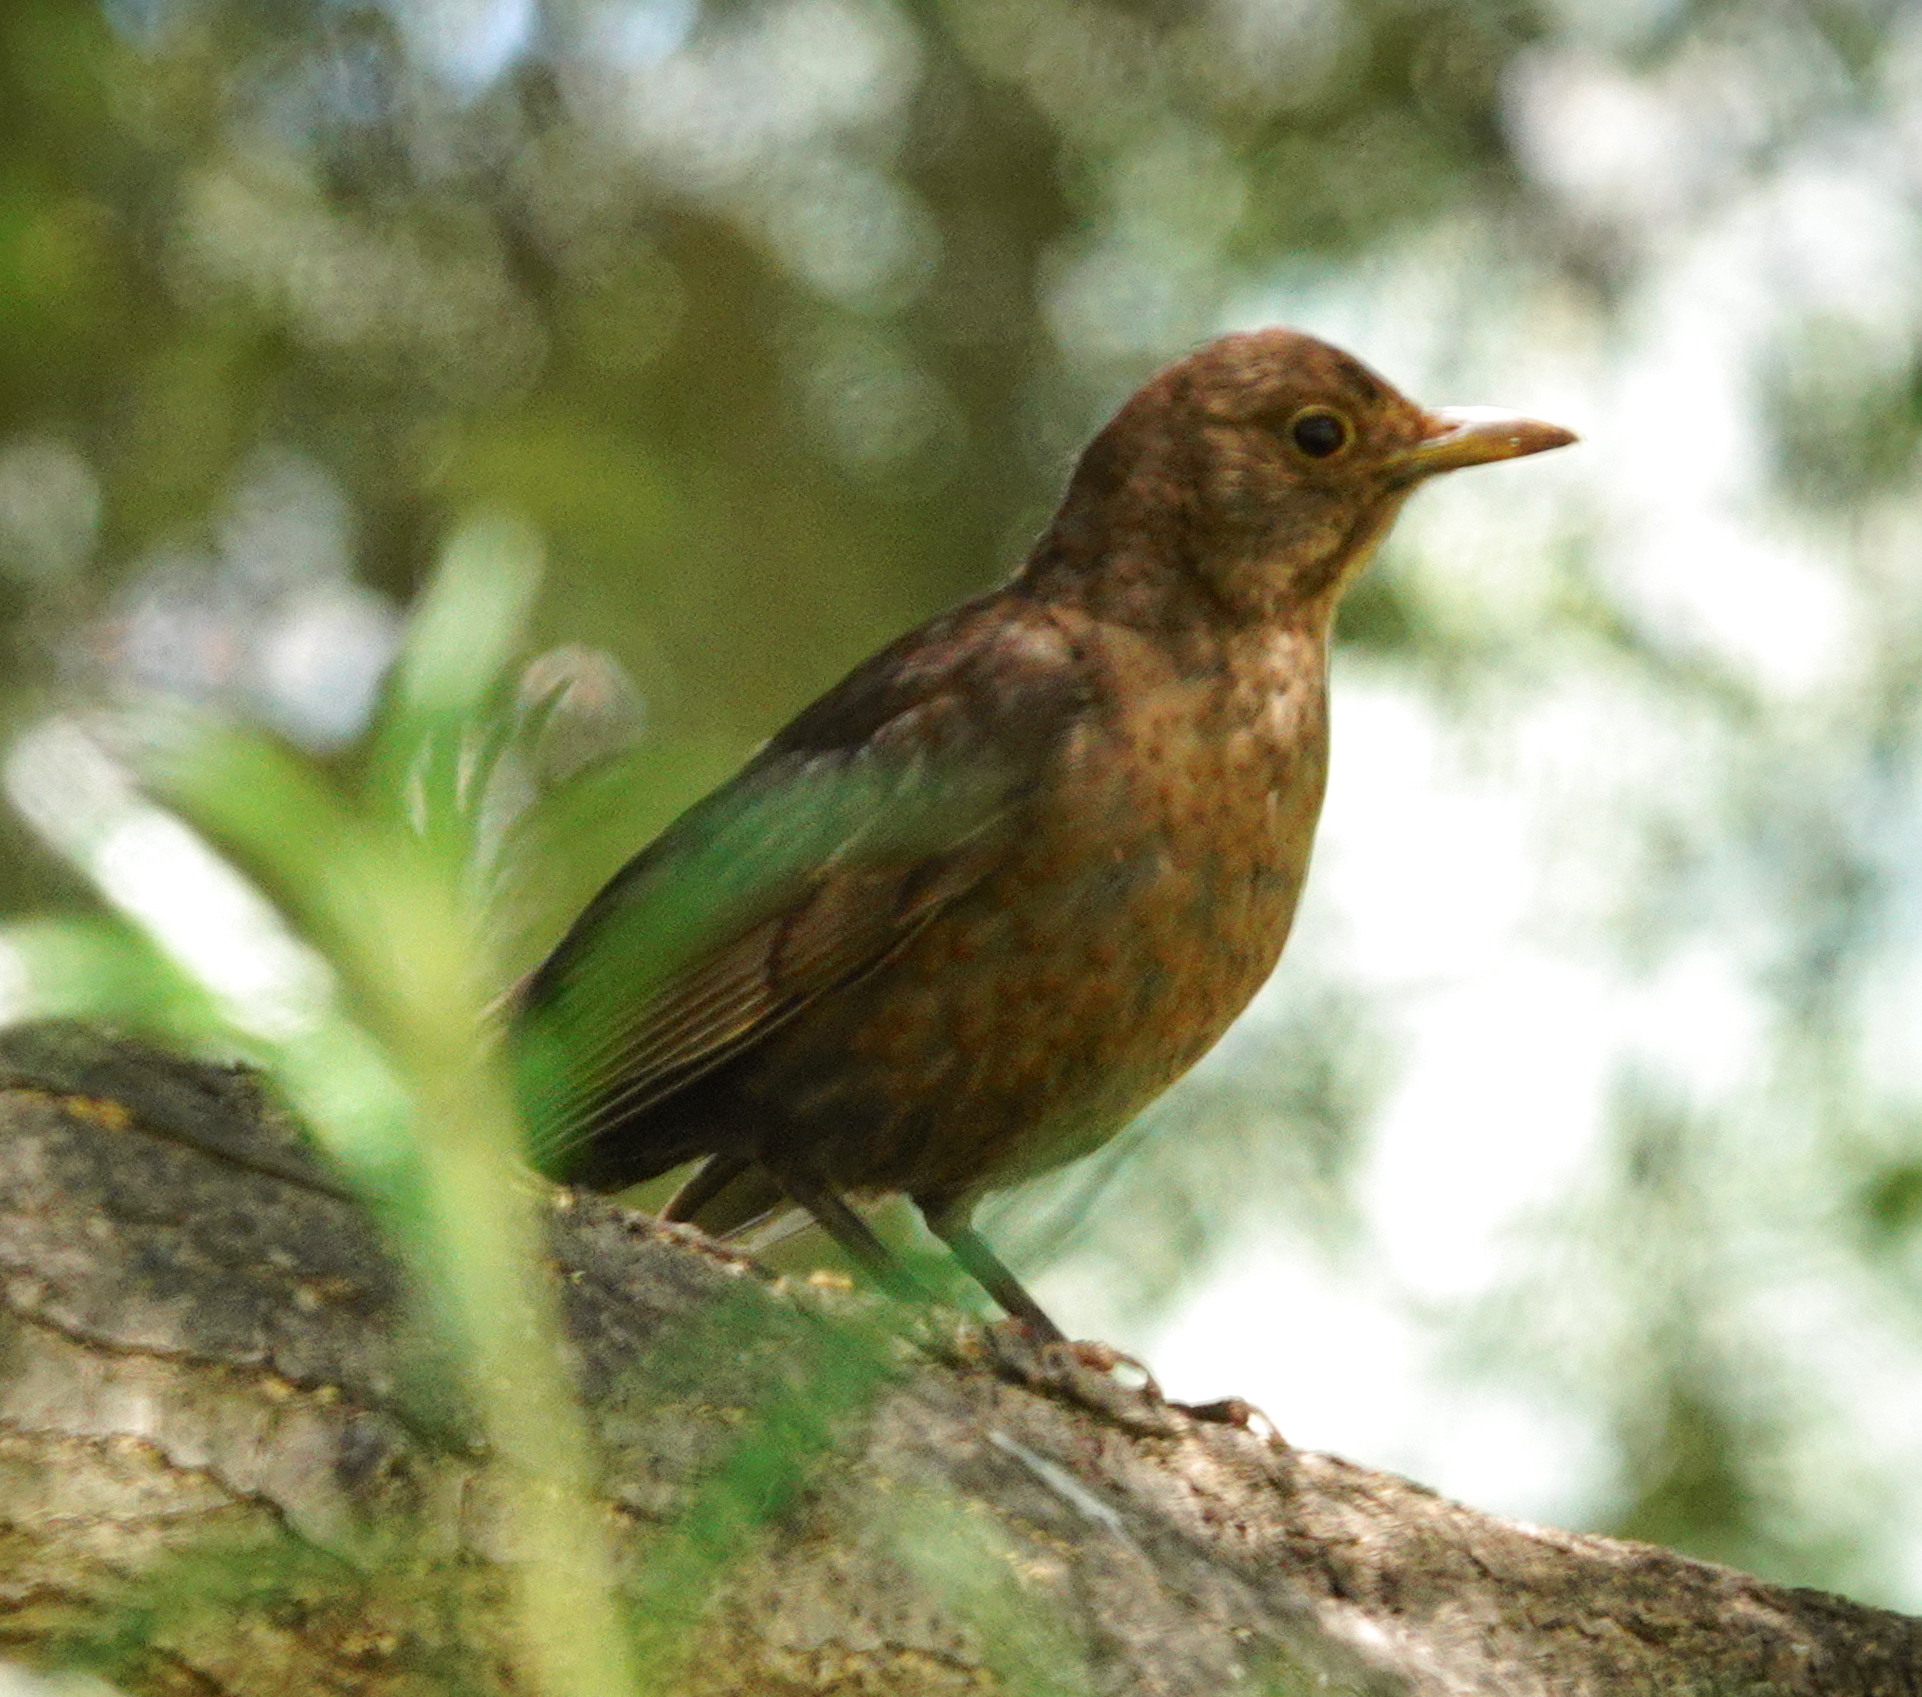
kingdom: Animalia
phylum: Chordata
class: Aves
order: Passeriformes
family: Turdidae
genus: Turdus
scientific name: Turdus merula
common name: Common blackbird
